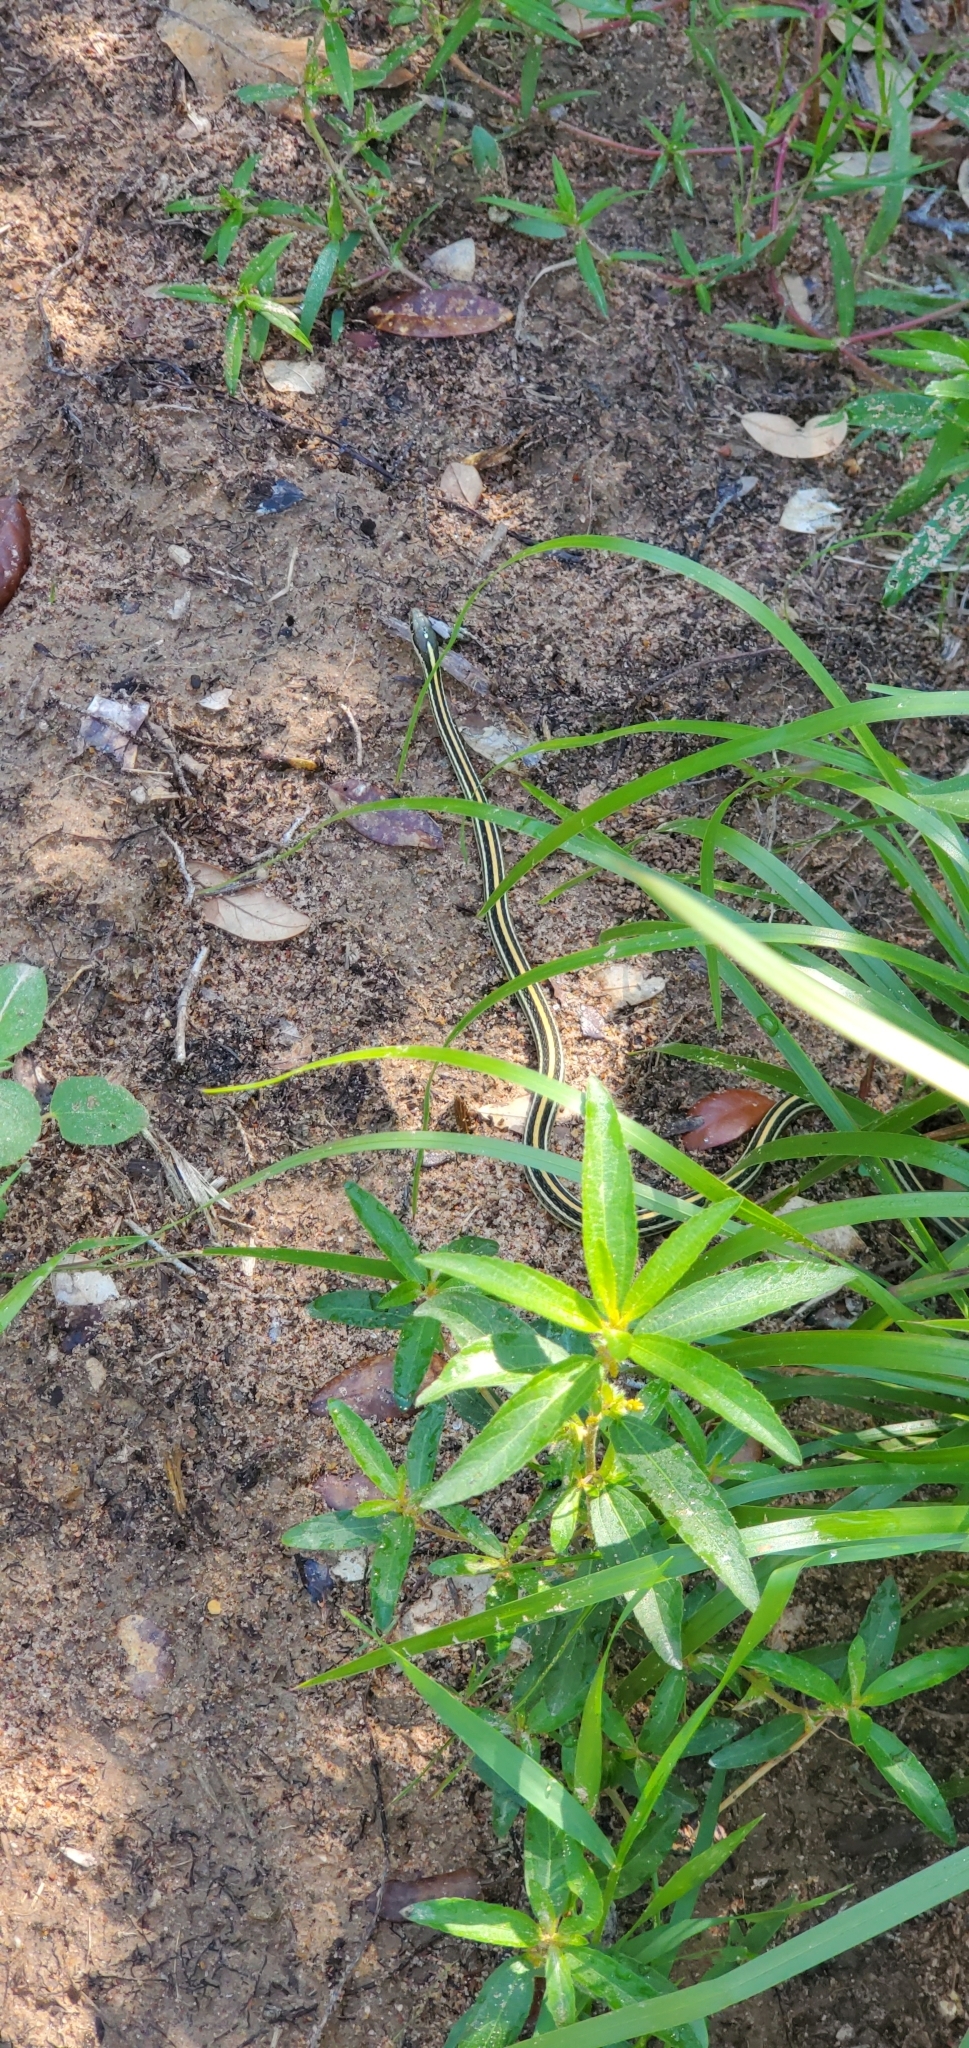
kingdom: Animalia
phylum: Chordata
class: Squamata
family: Colubridae
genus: Thamnophis
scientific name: Thamnophis proximus
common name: Western ribbon snake
